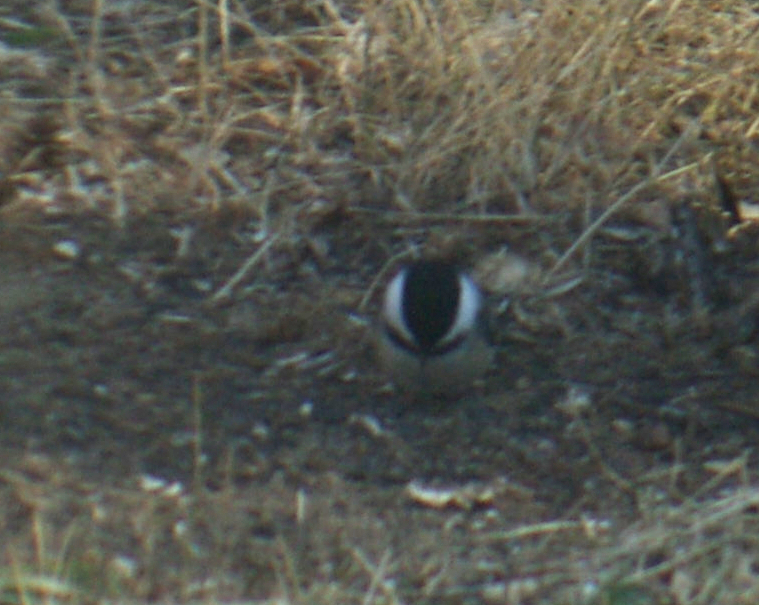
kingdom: Animalia
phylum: Chordata
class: Aves
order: Passeriformes
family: Paridae
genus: Poecile
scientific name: Poecile atricapillus
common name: Black-capped chickadee
